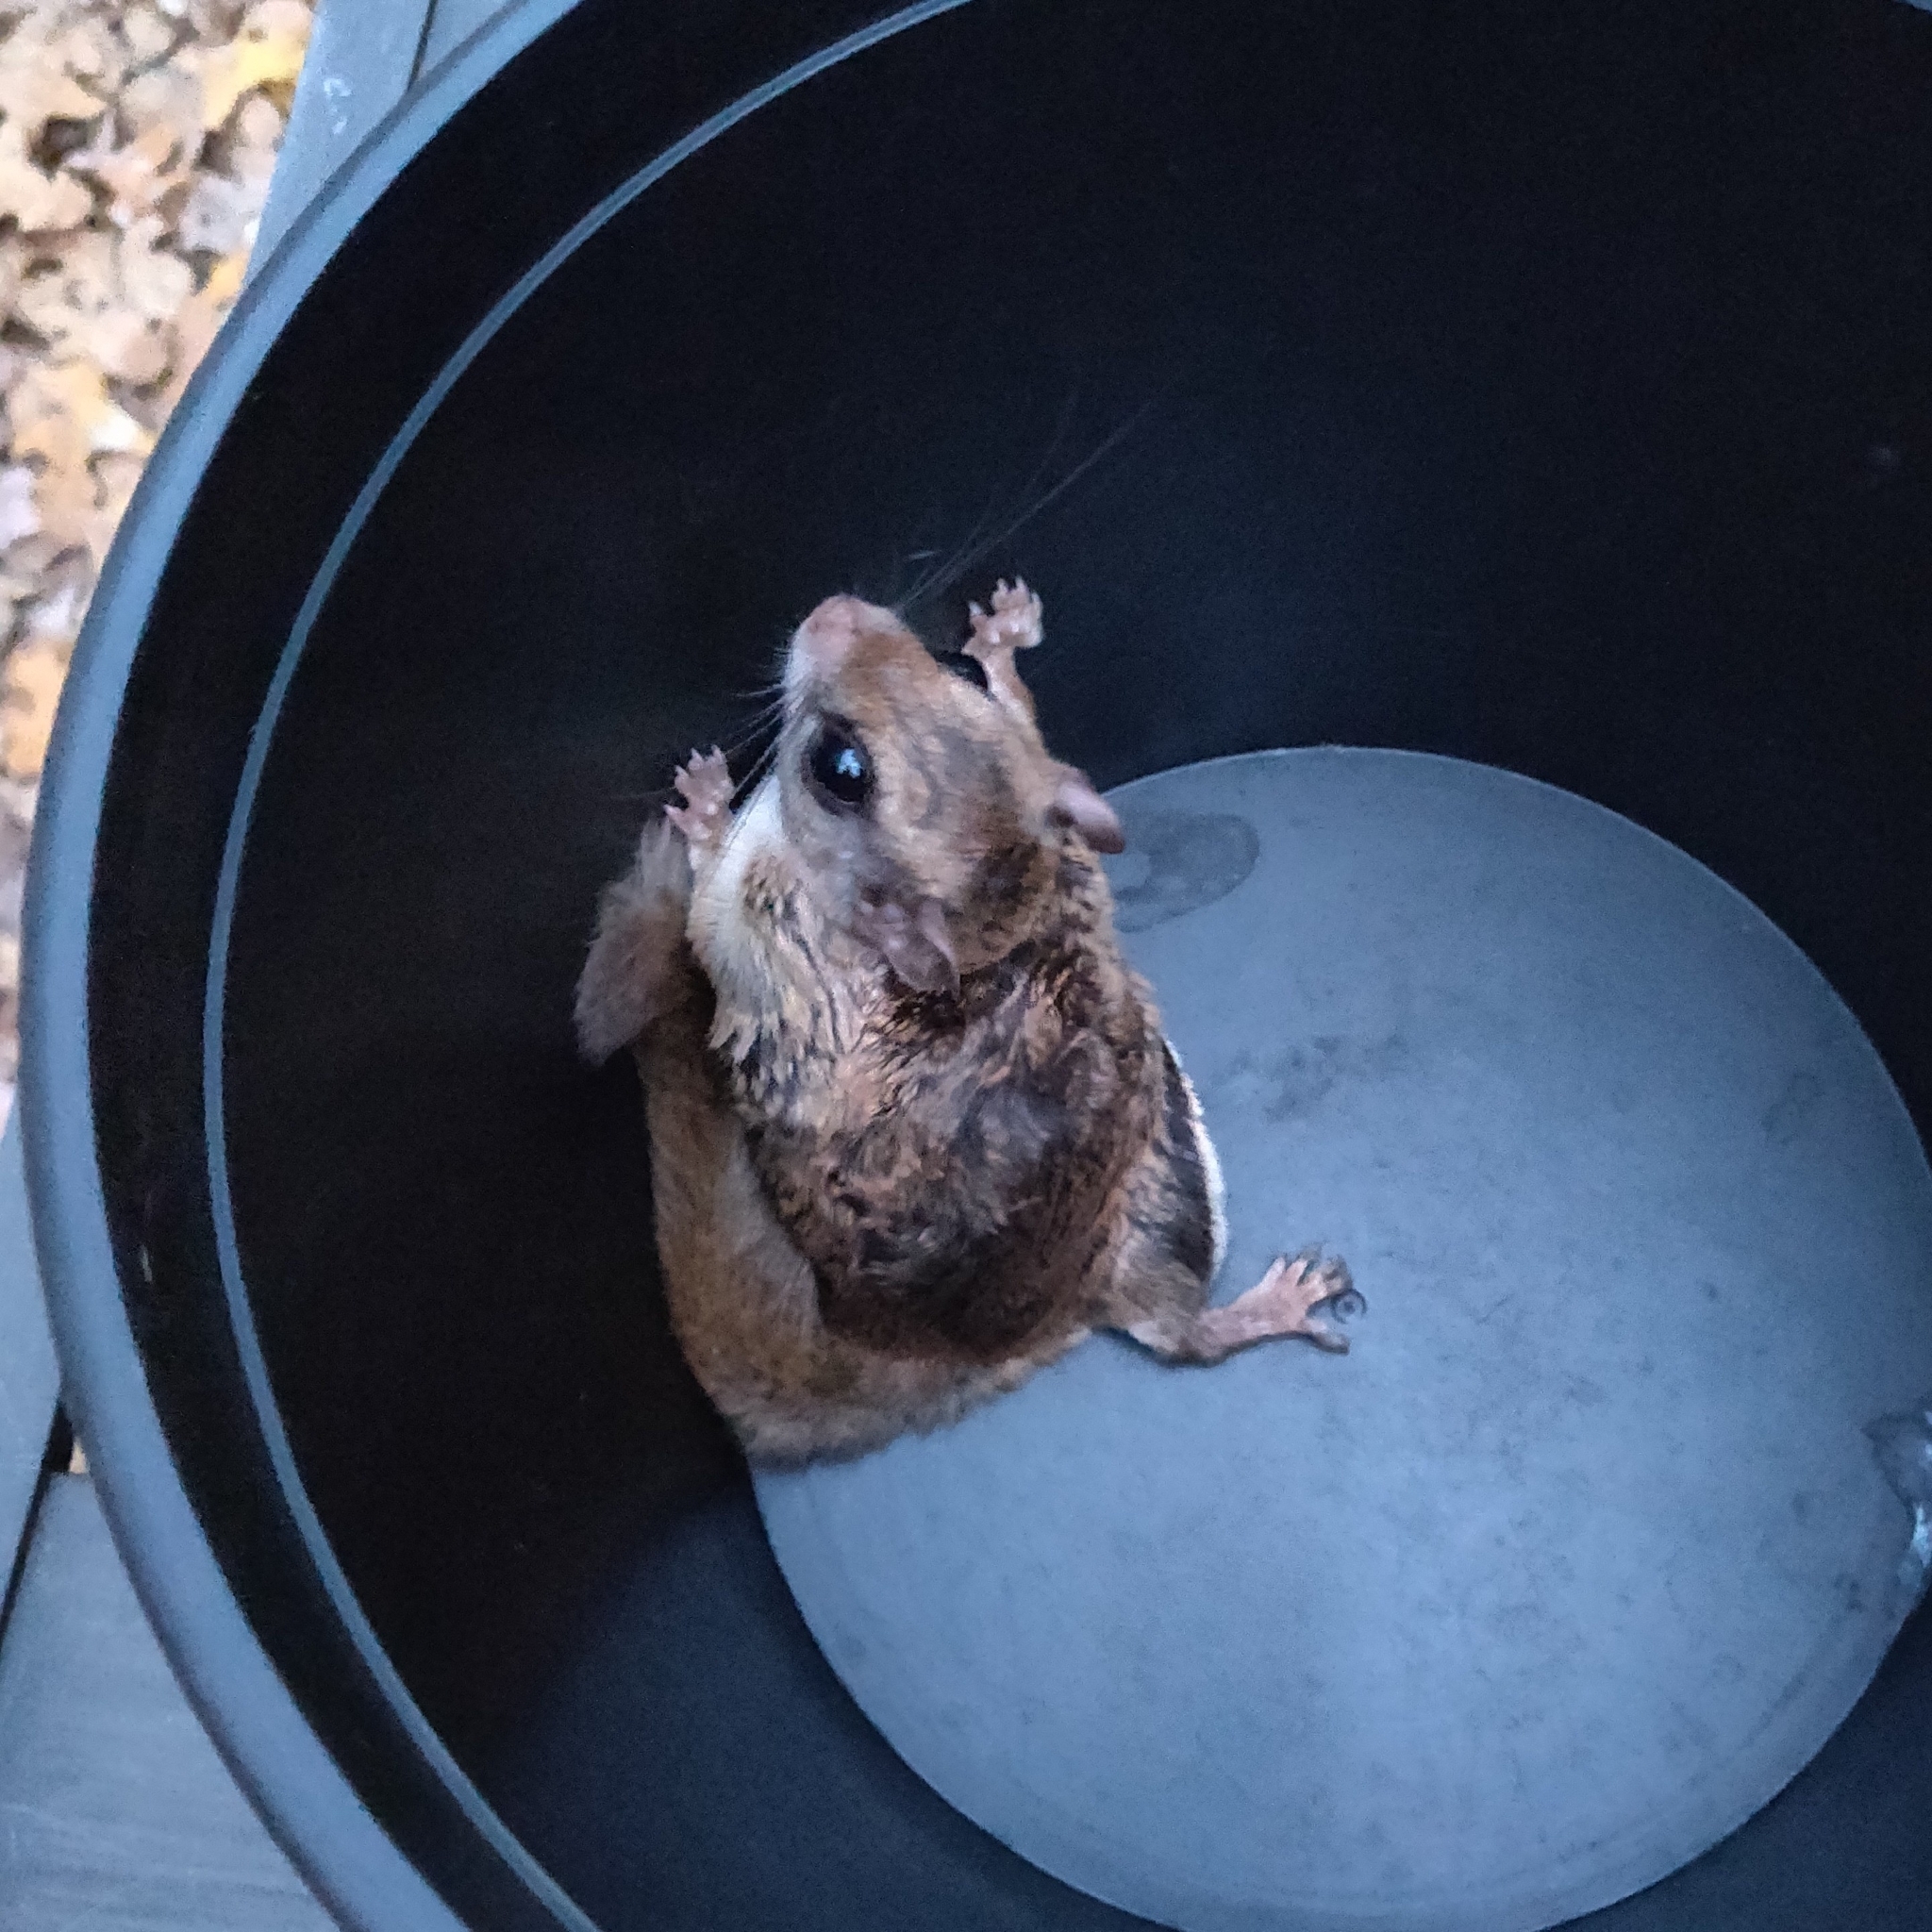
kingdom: Animalia
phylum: Chordata
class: Mammalia
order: Rodentia
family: Sciuridae
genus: Glaucomys
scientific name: Glaucomys volans
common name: Southern flying squirrel
